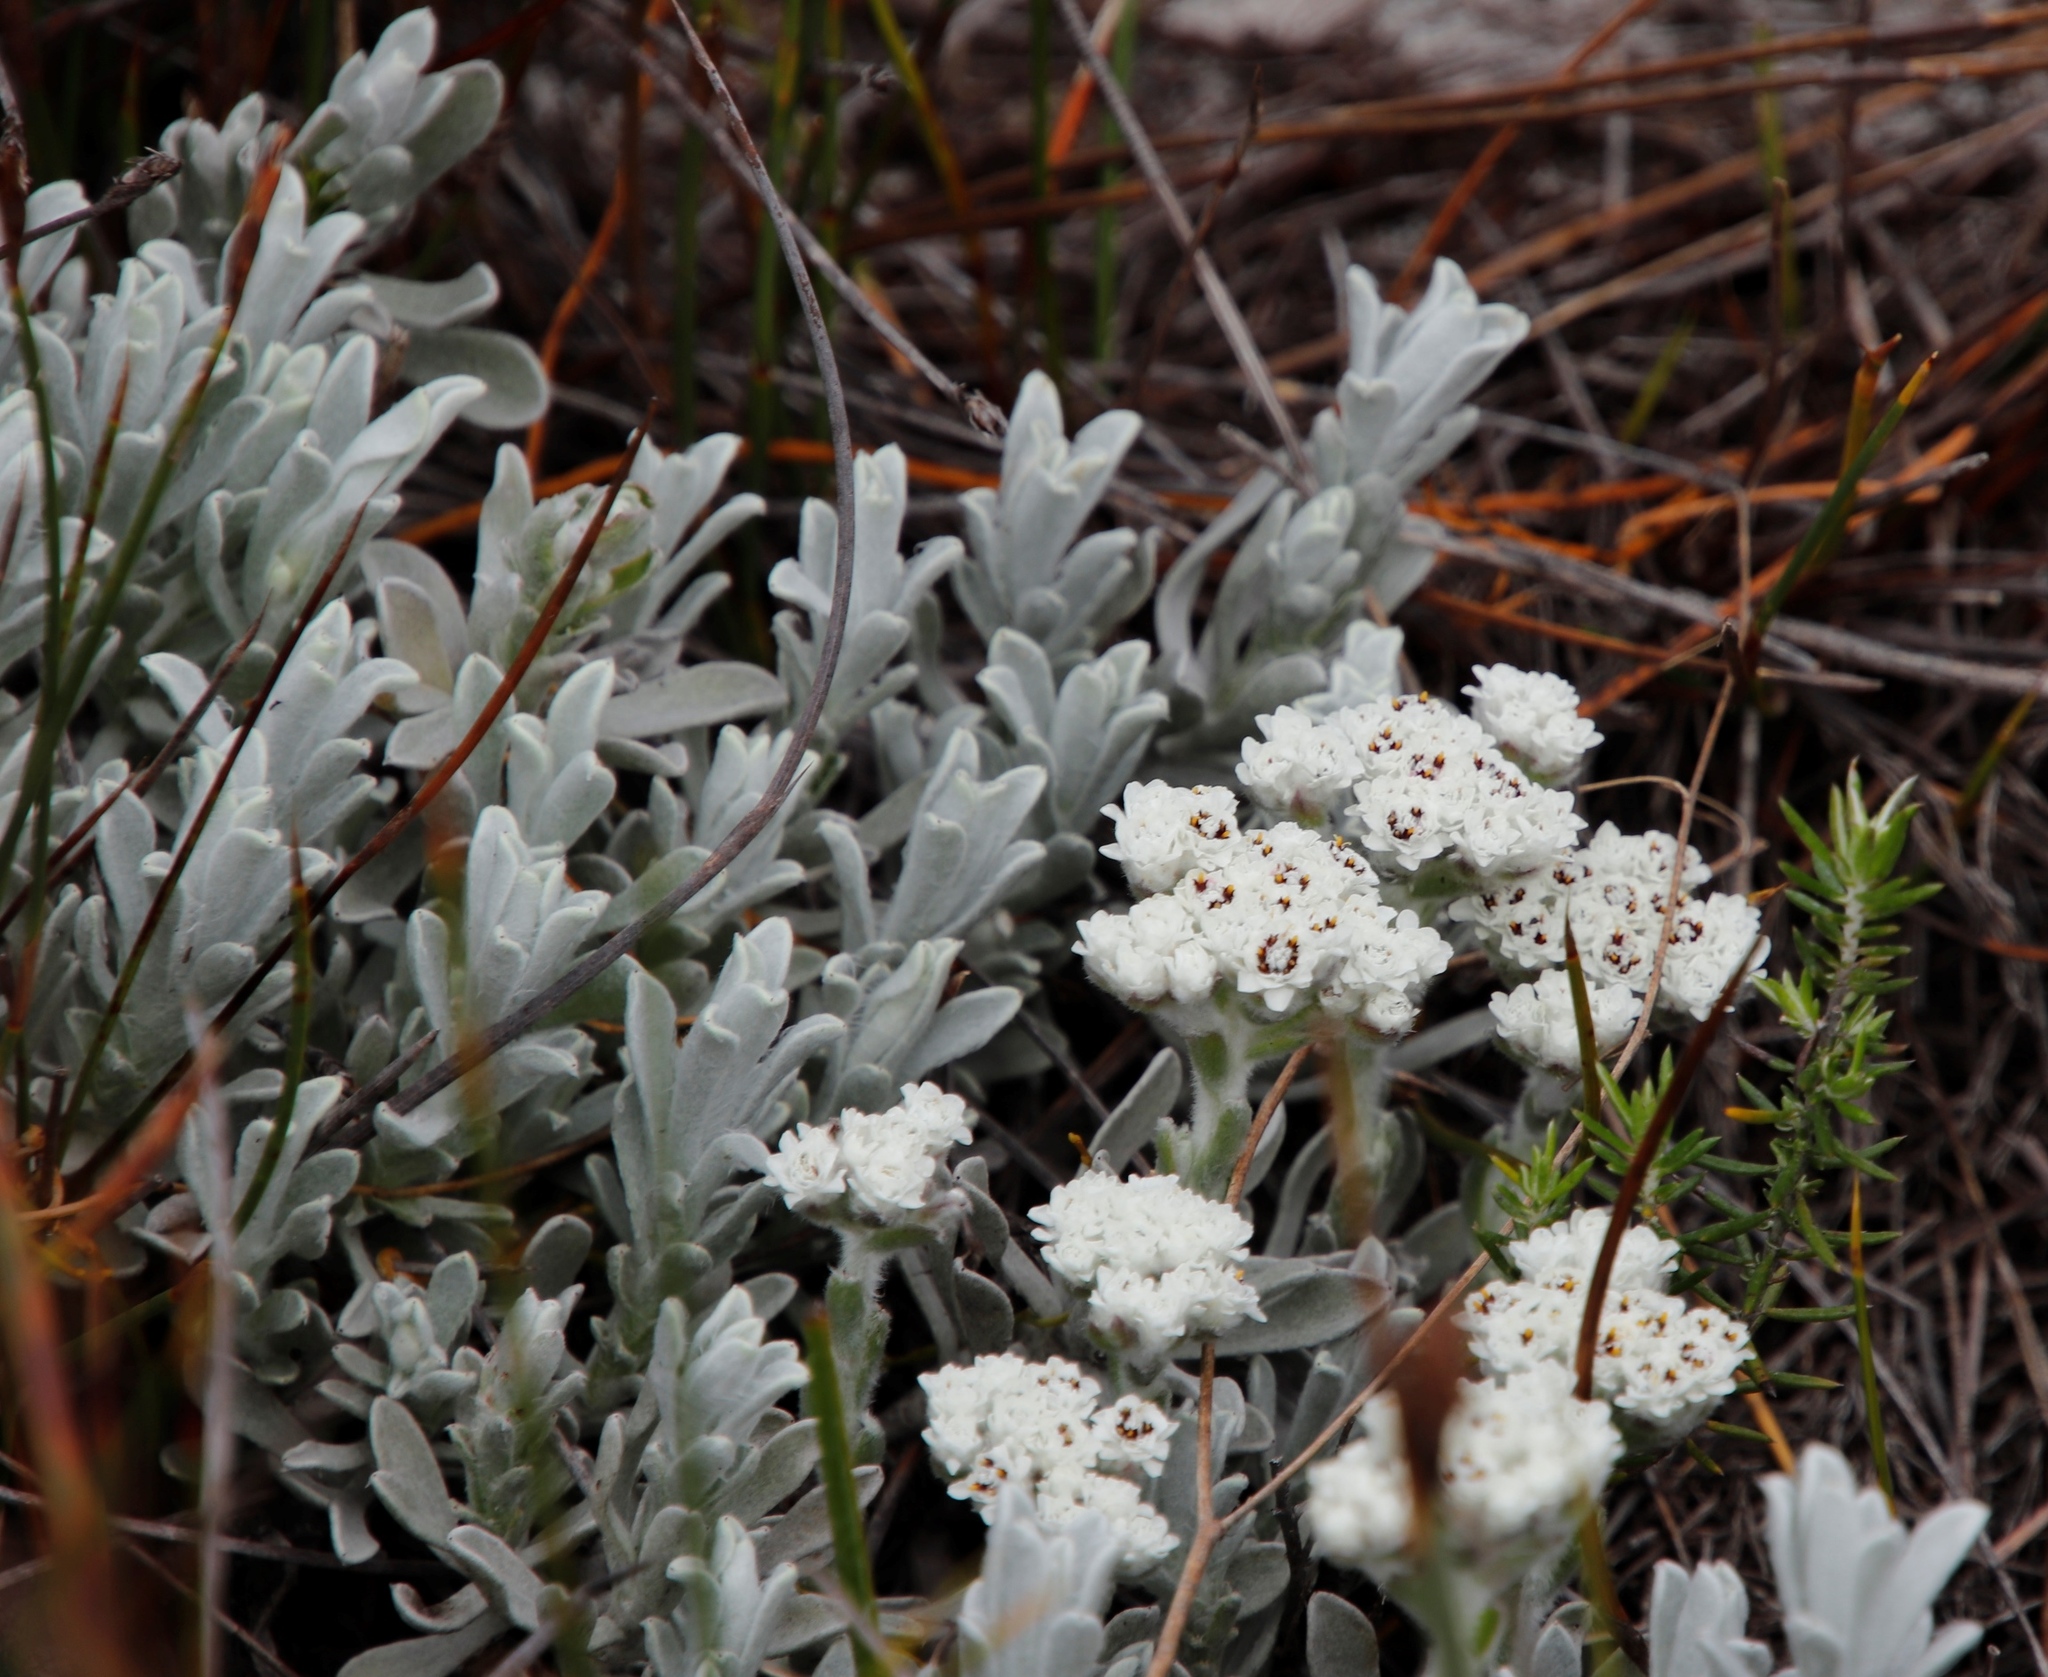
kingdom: Plantae
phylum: Tracheophyta
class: Magnoliopsida
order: Asterales
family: Asteraceae
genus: Petalacte
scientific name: Petalacte coronata
